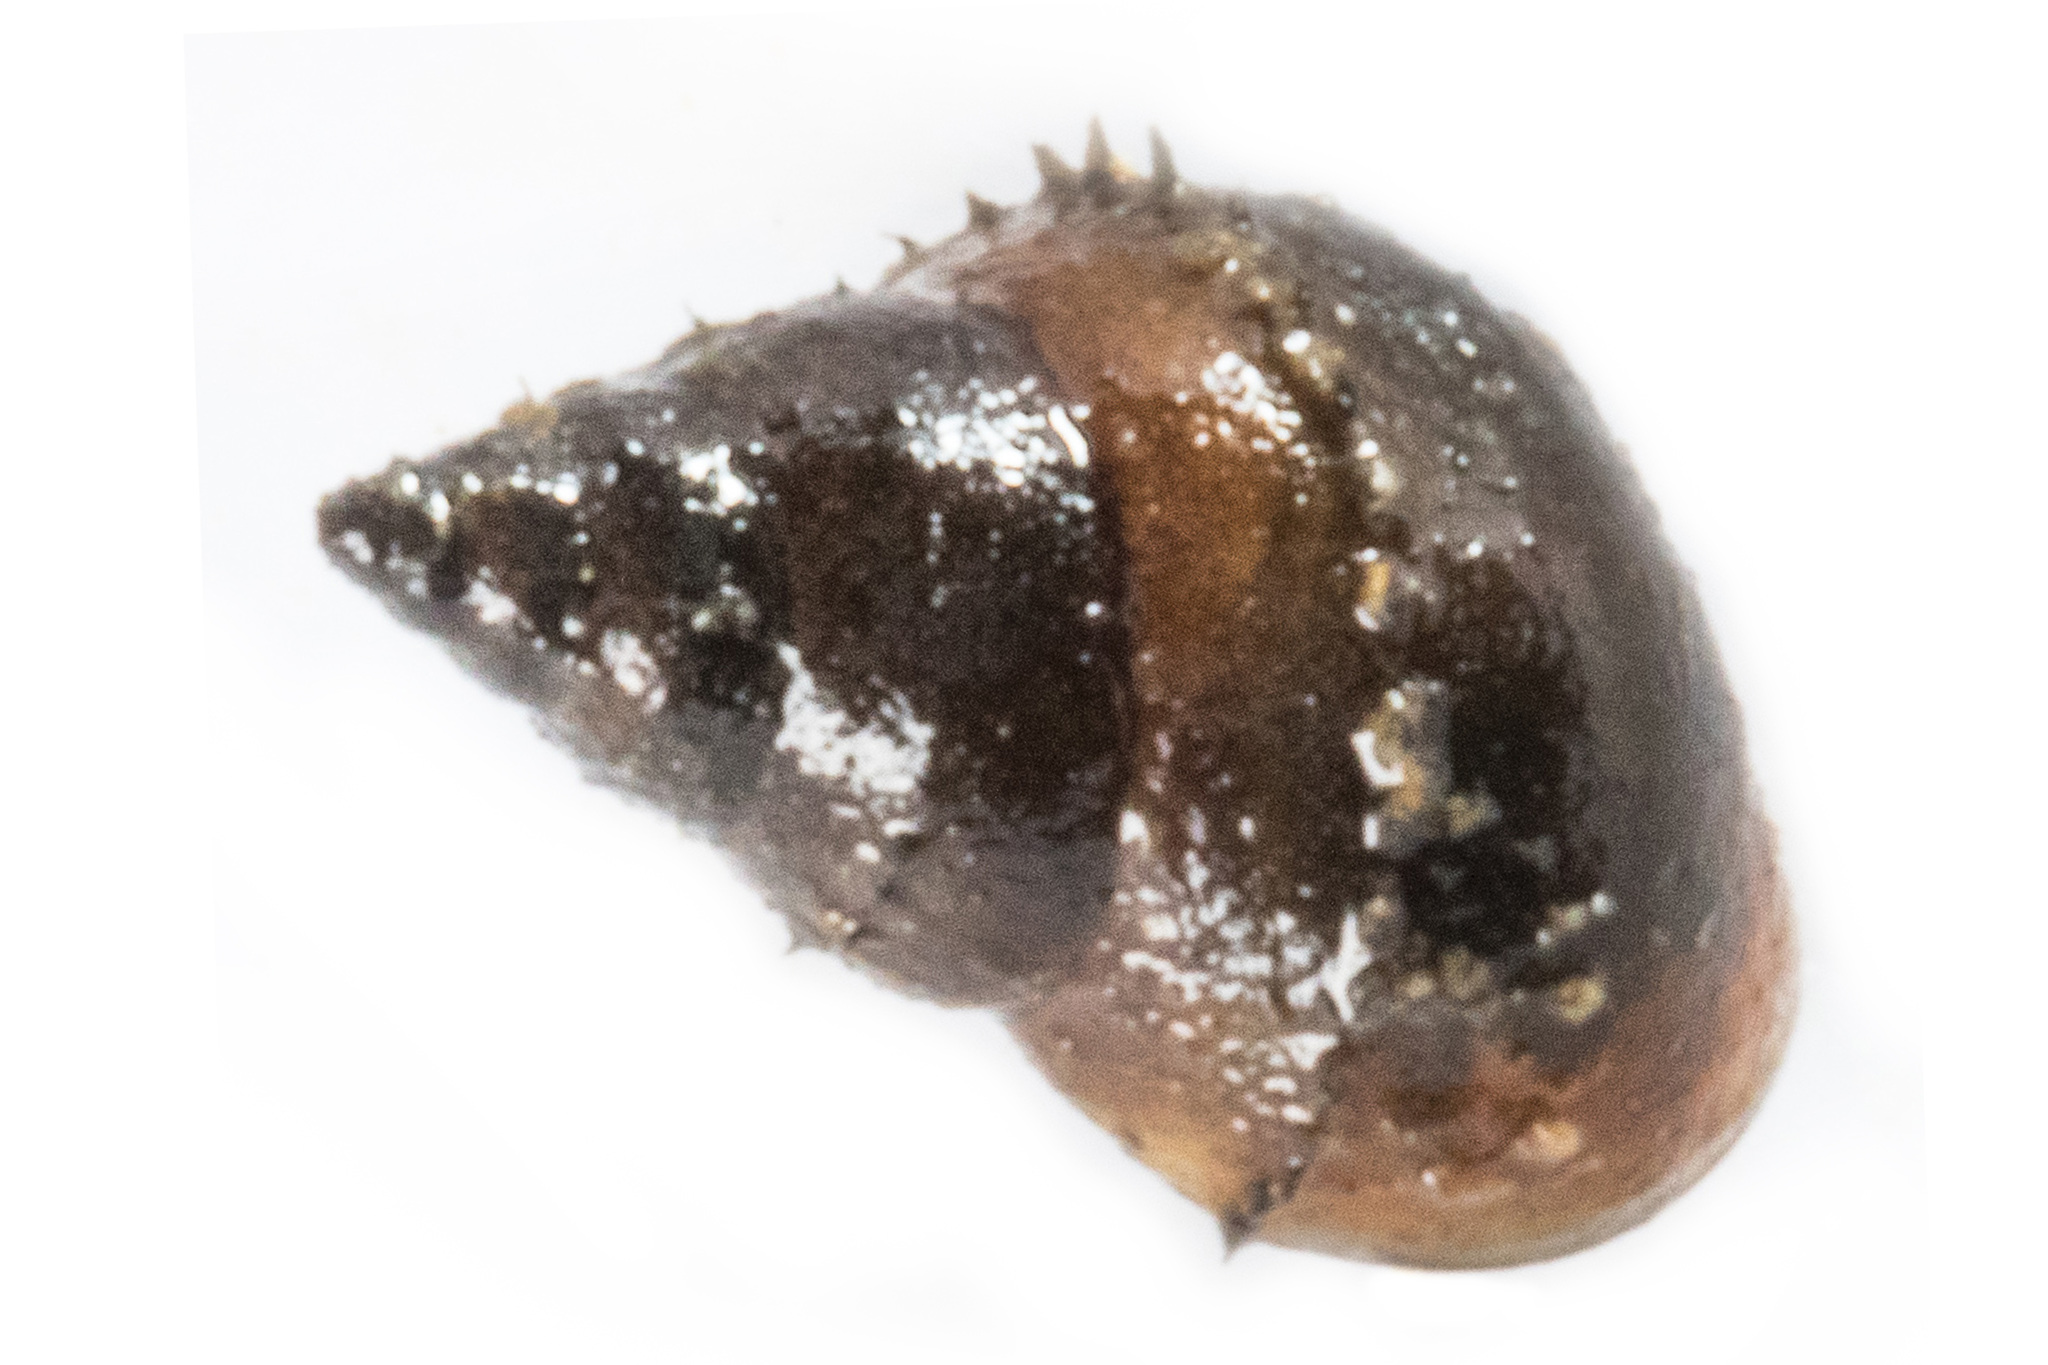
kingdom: Animalia
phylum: Mollusca
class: Gastropoda
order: Littorinimorpha
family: Tateidae
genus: Potamopyrgus
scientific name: Potamopyrgus antipodarum
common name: Jenkins' spire snail
